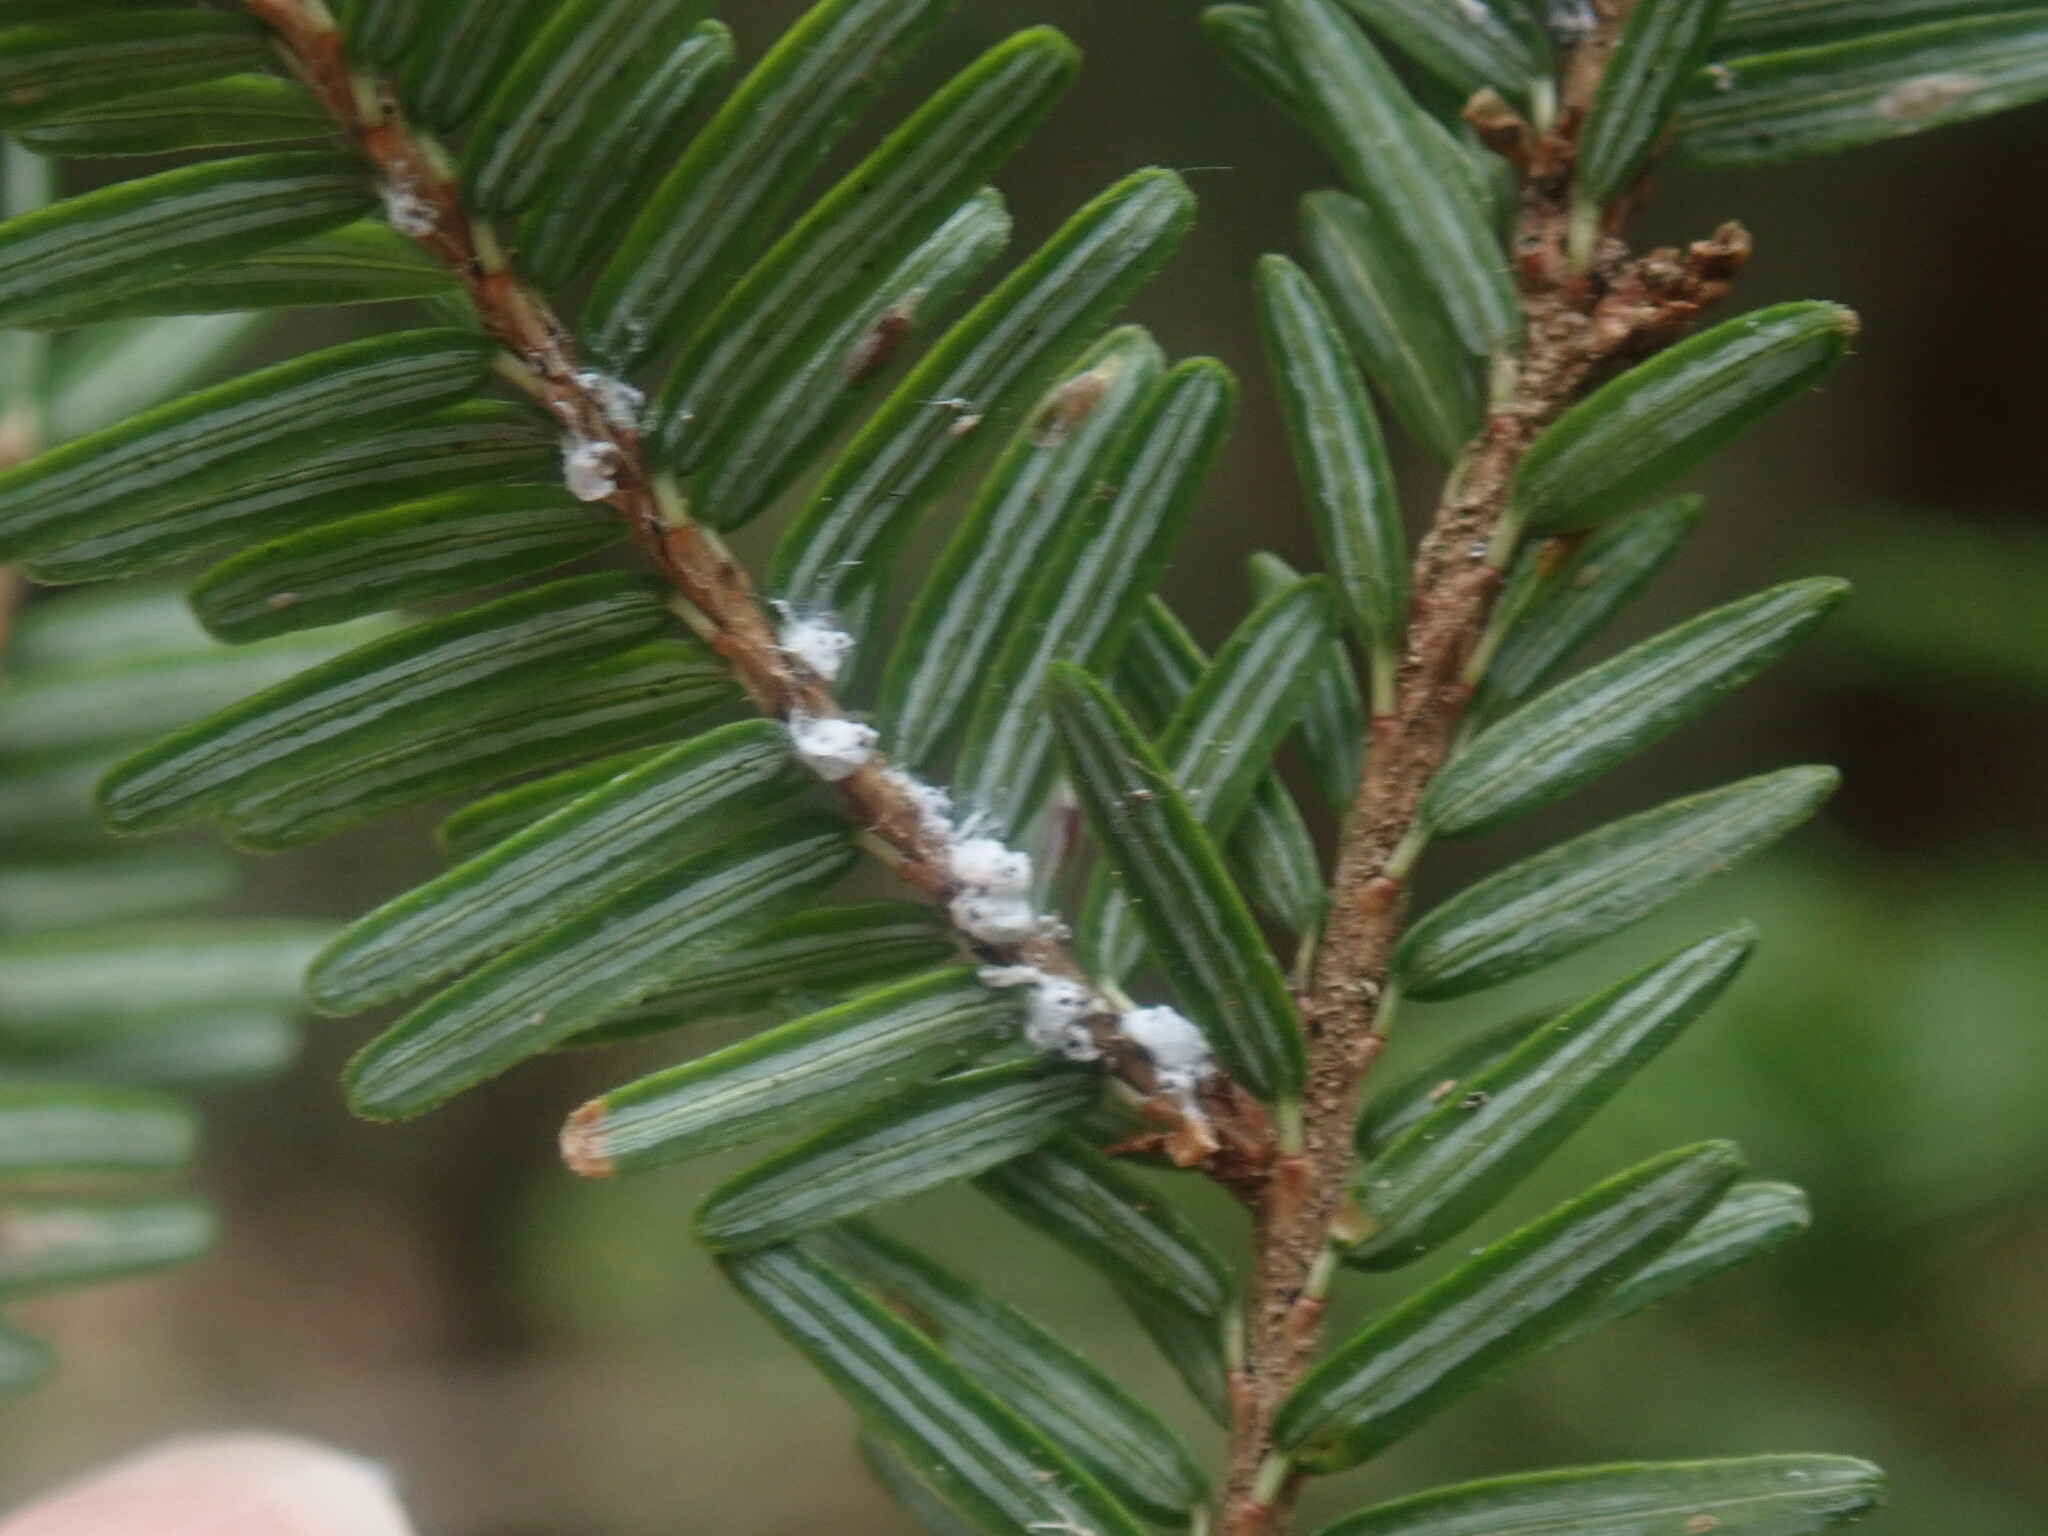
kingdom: Animalia
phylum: Arthropoda
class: Insecta
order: Hemiptera
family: Adelgidae
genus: Adelges
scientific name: Adelges tsugae
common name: Hemlock woolly adelgid
